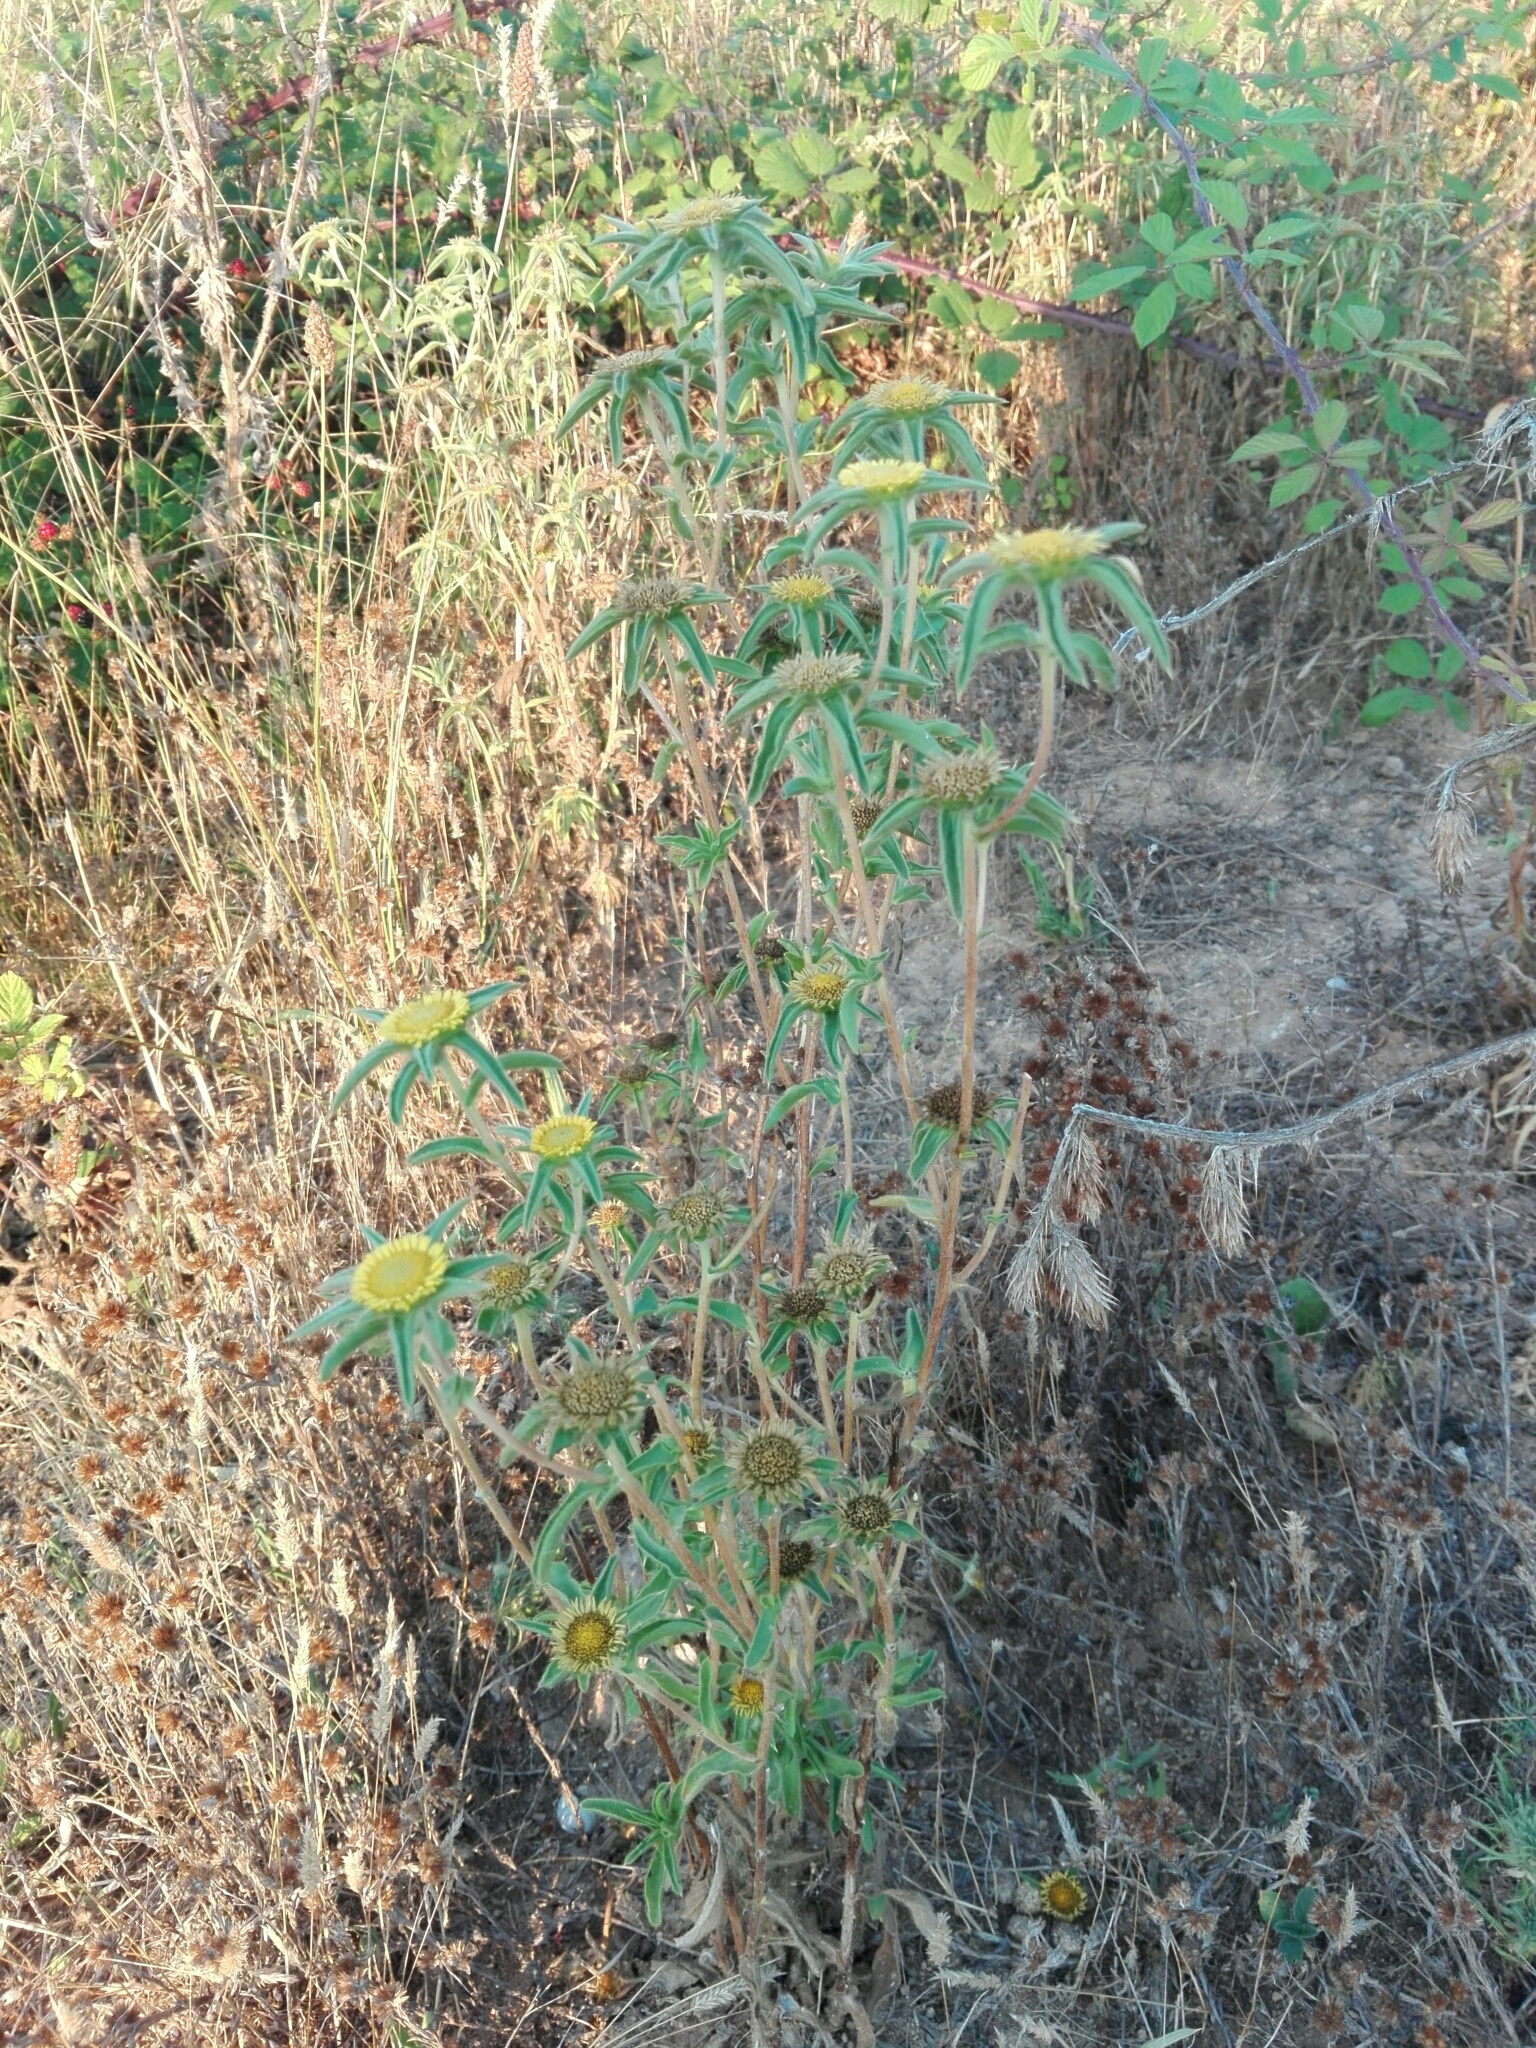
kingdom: Plantae
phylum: Tracheophyta
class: Magnoliopsida
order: Asterales
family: Asteraceae
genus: Pallenis
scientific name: Pallenis spinosa
